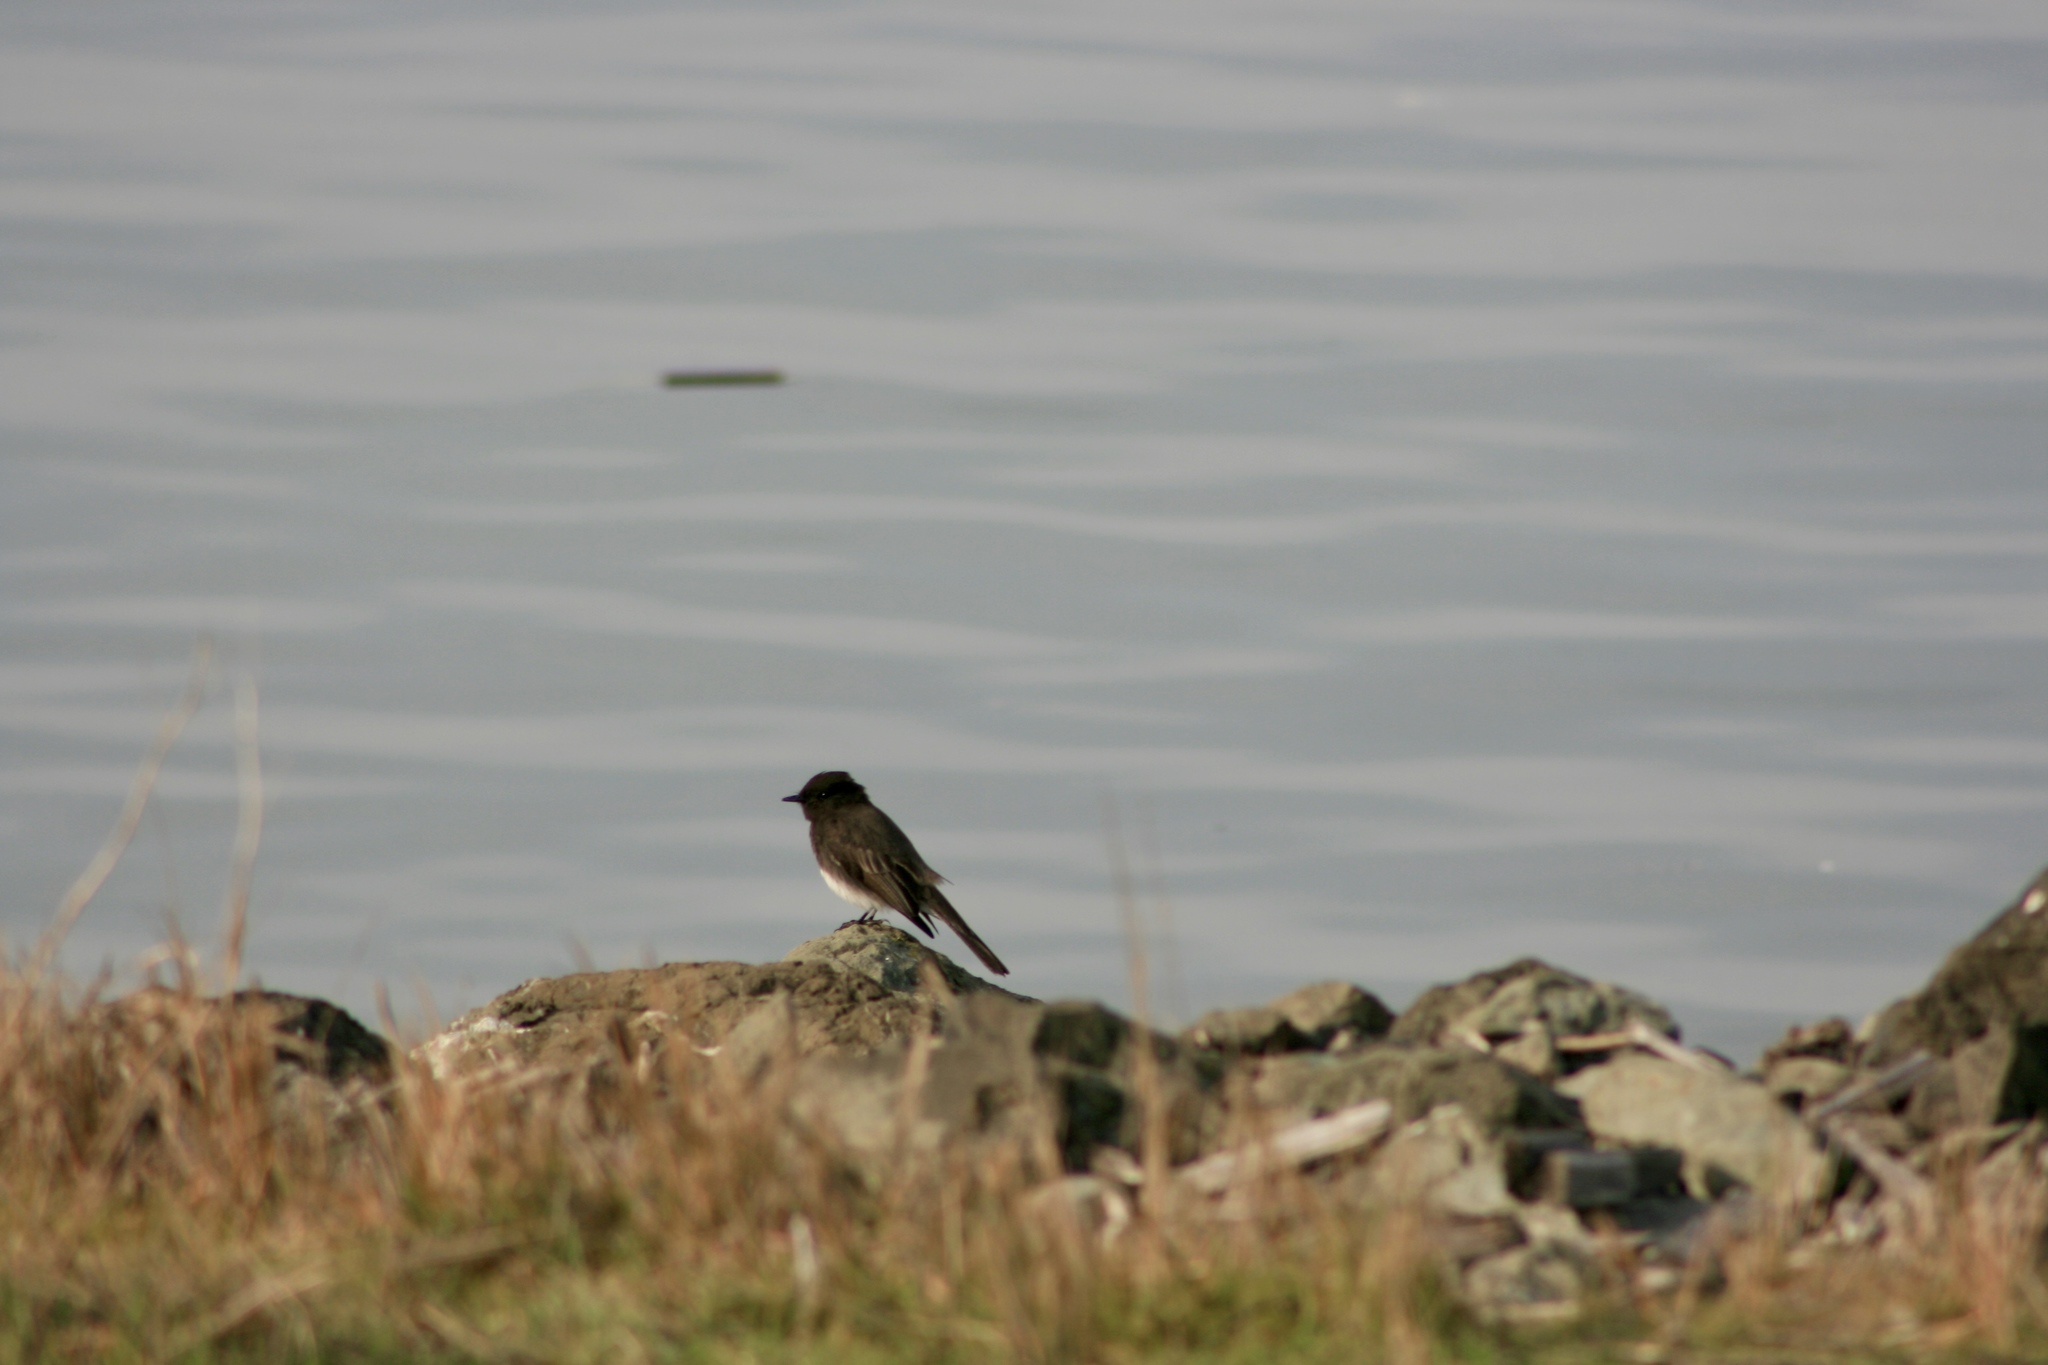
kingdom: Animalia
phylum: Chordata
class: Aves
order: Passeriformes
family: Tyrannidae
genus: Sayornis
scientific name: Sayornis nigricans
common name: Black phoebe
